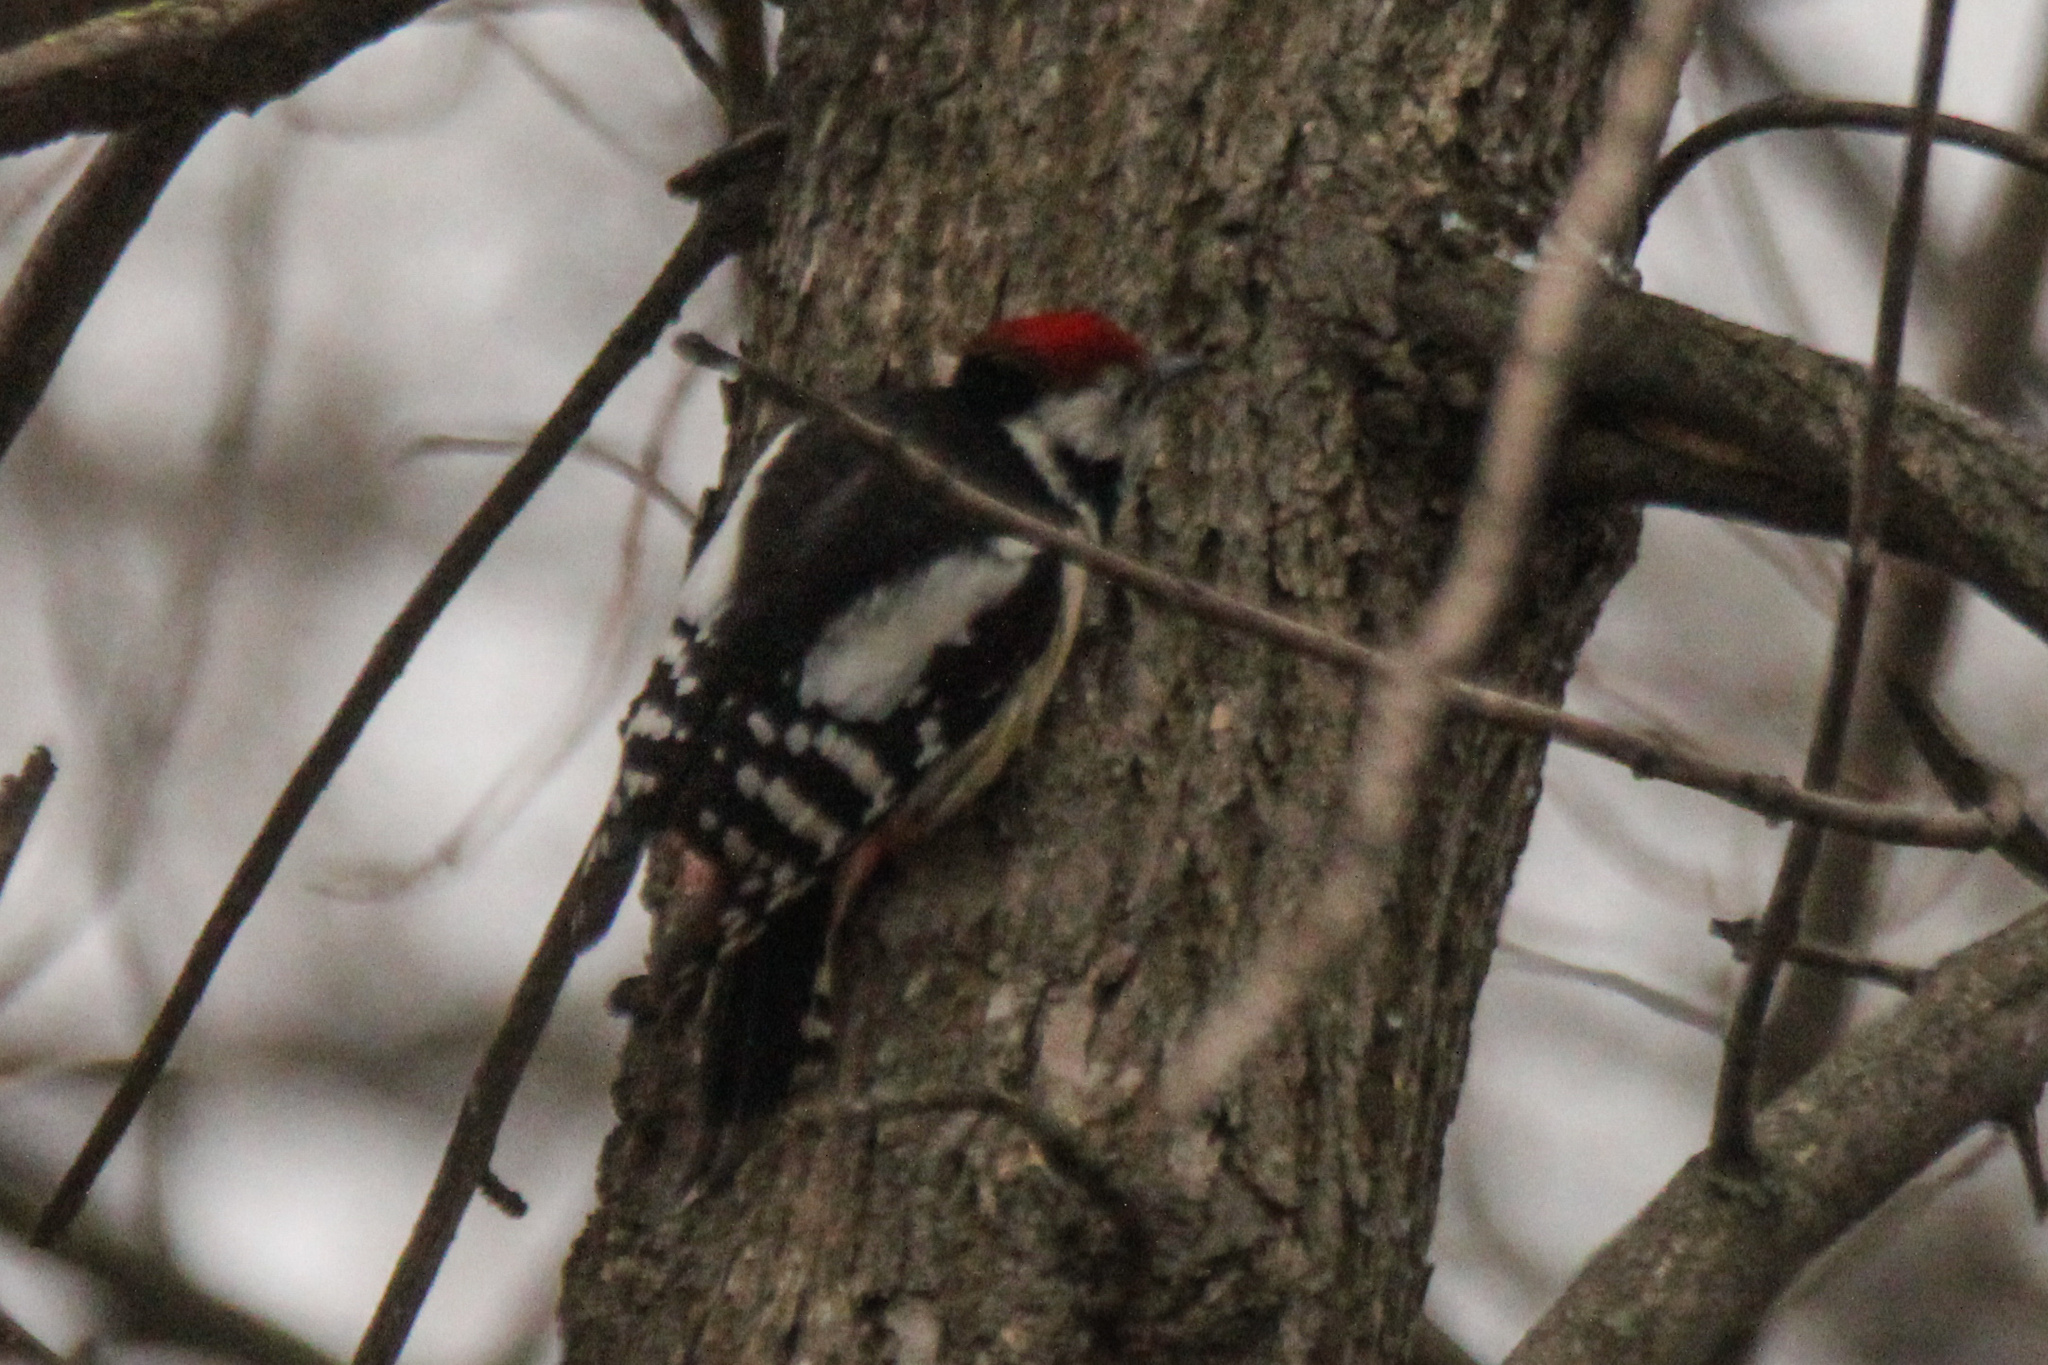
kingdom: Animalia
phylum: Chordata
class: Aves
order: Piciformes
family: Picidae
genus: Dendrocoptes
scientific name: Dendrocoptes medius
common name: Middle spotted woodpecker
